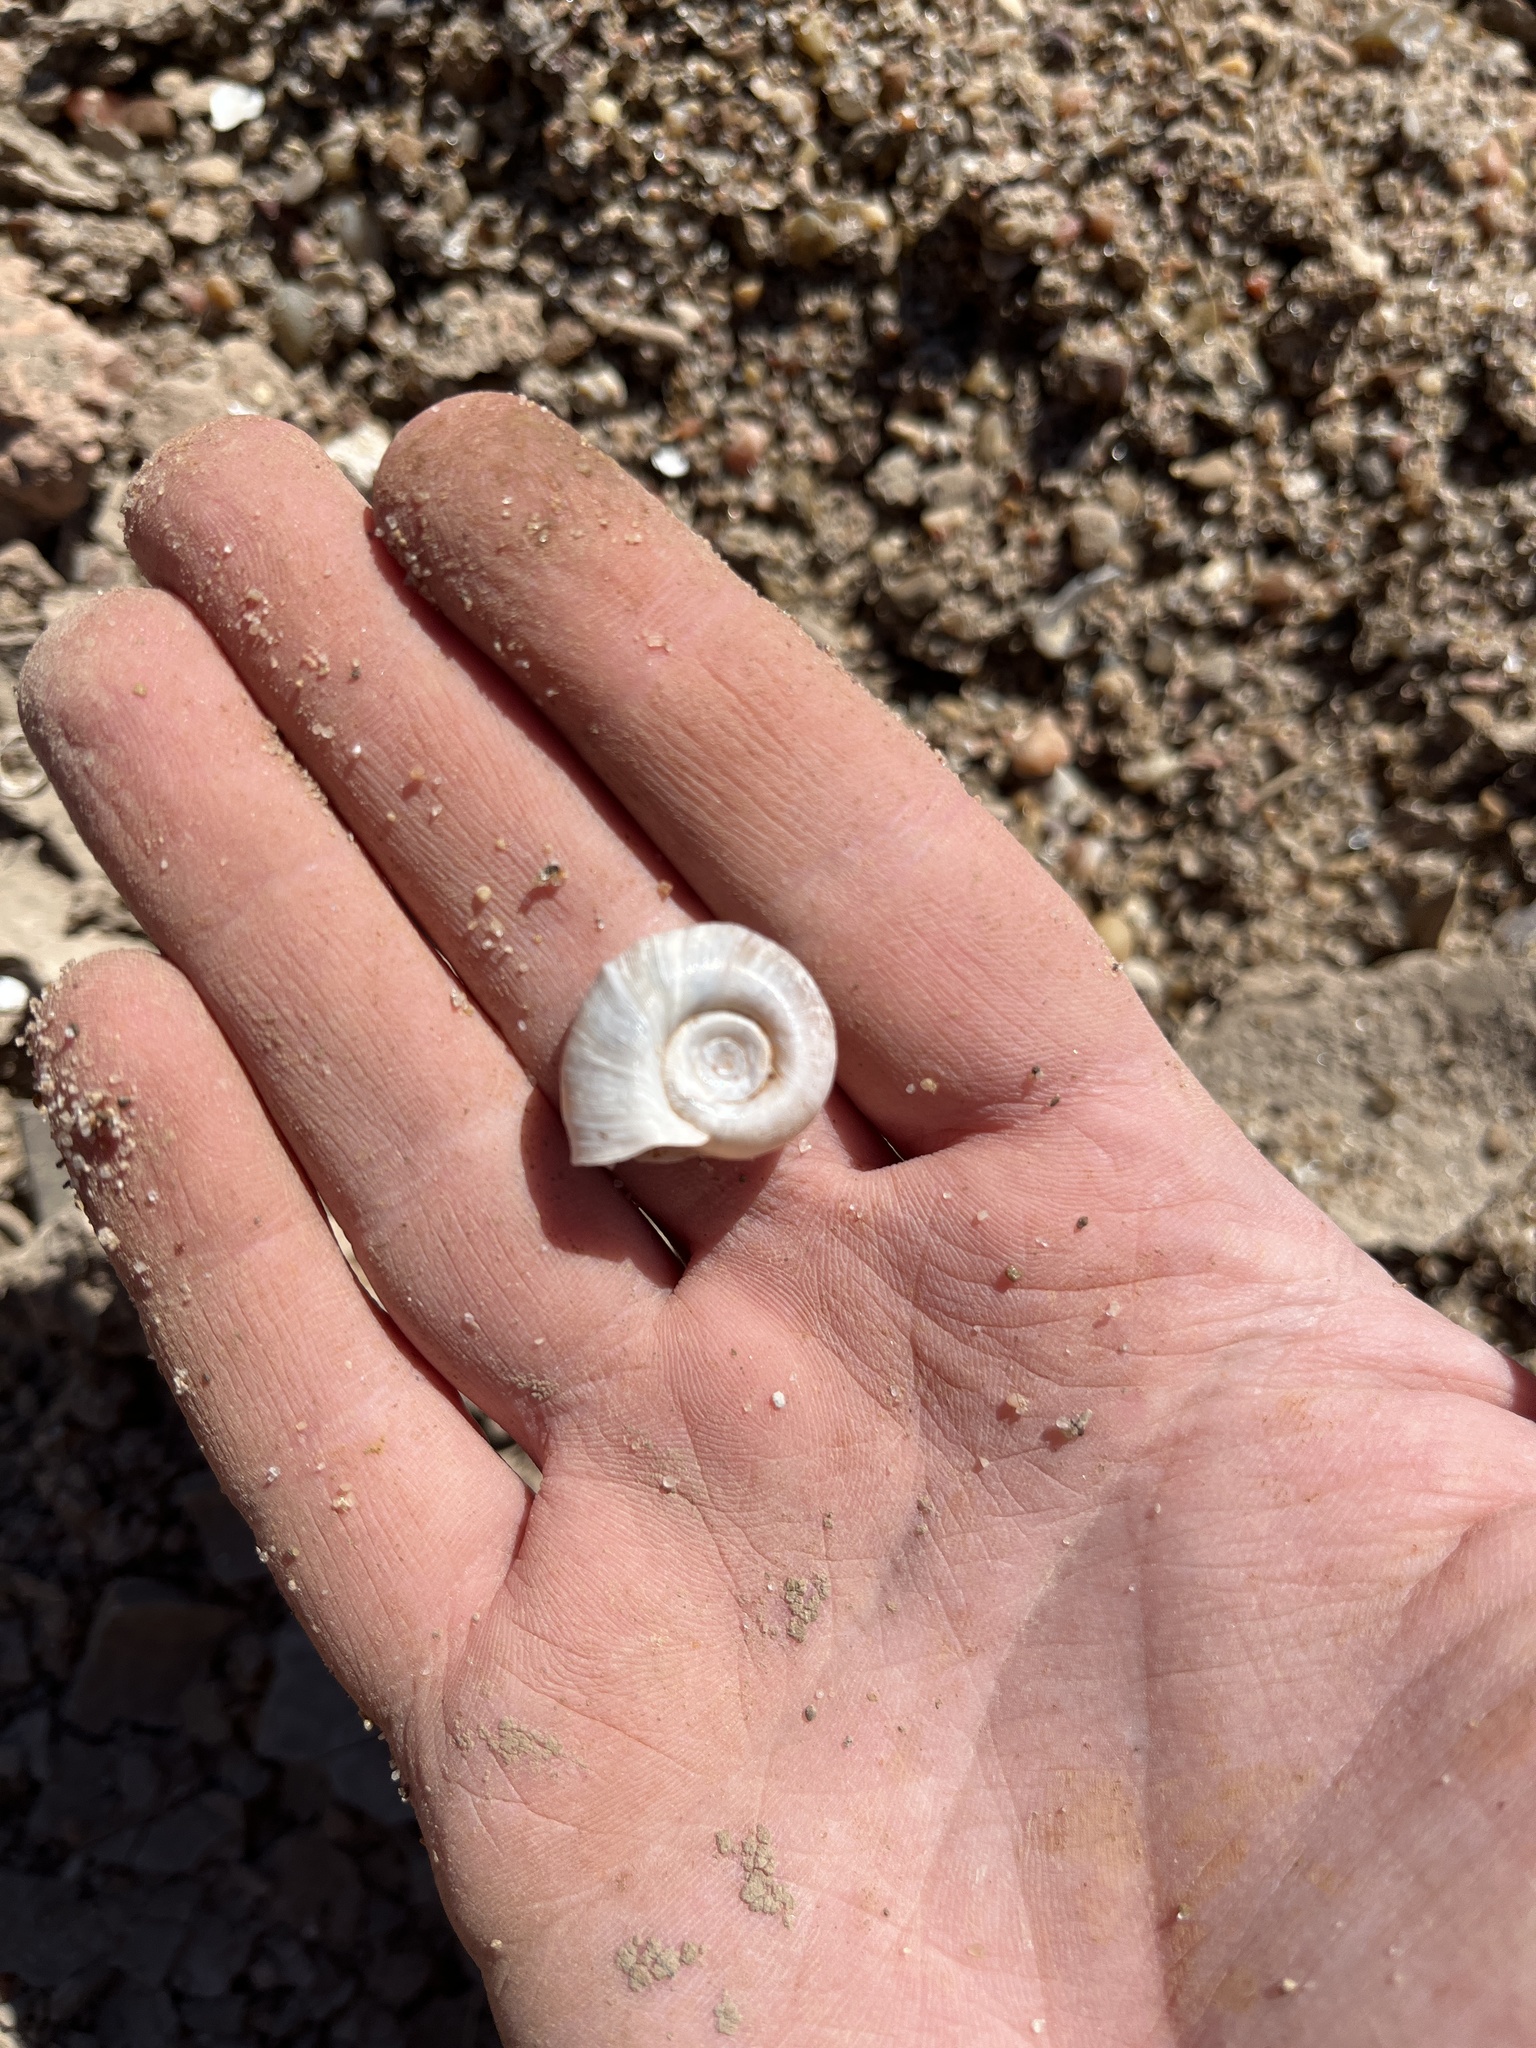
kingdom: Animalia
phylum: Mollusca
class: Gastropoda
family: Planorbidae
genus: Planorbella
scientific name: Planorbella campanulata
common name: Bellmouth ramshorn
